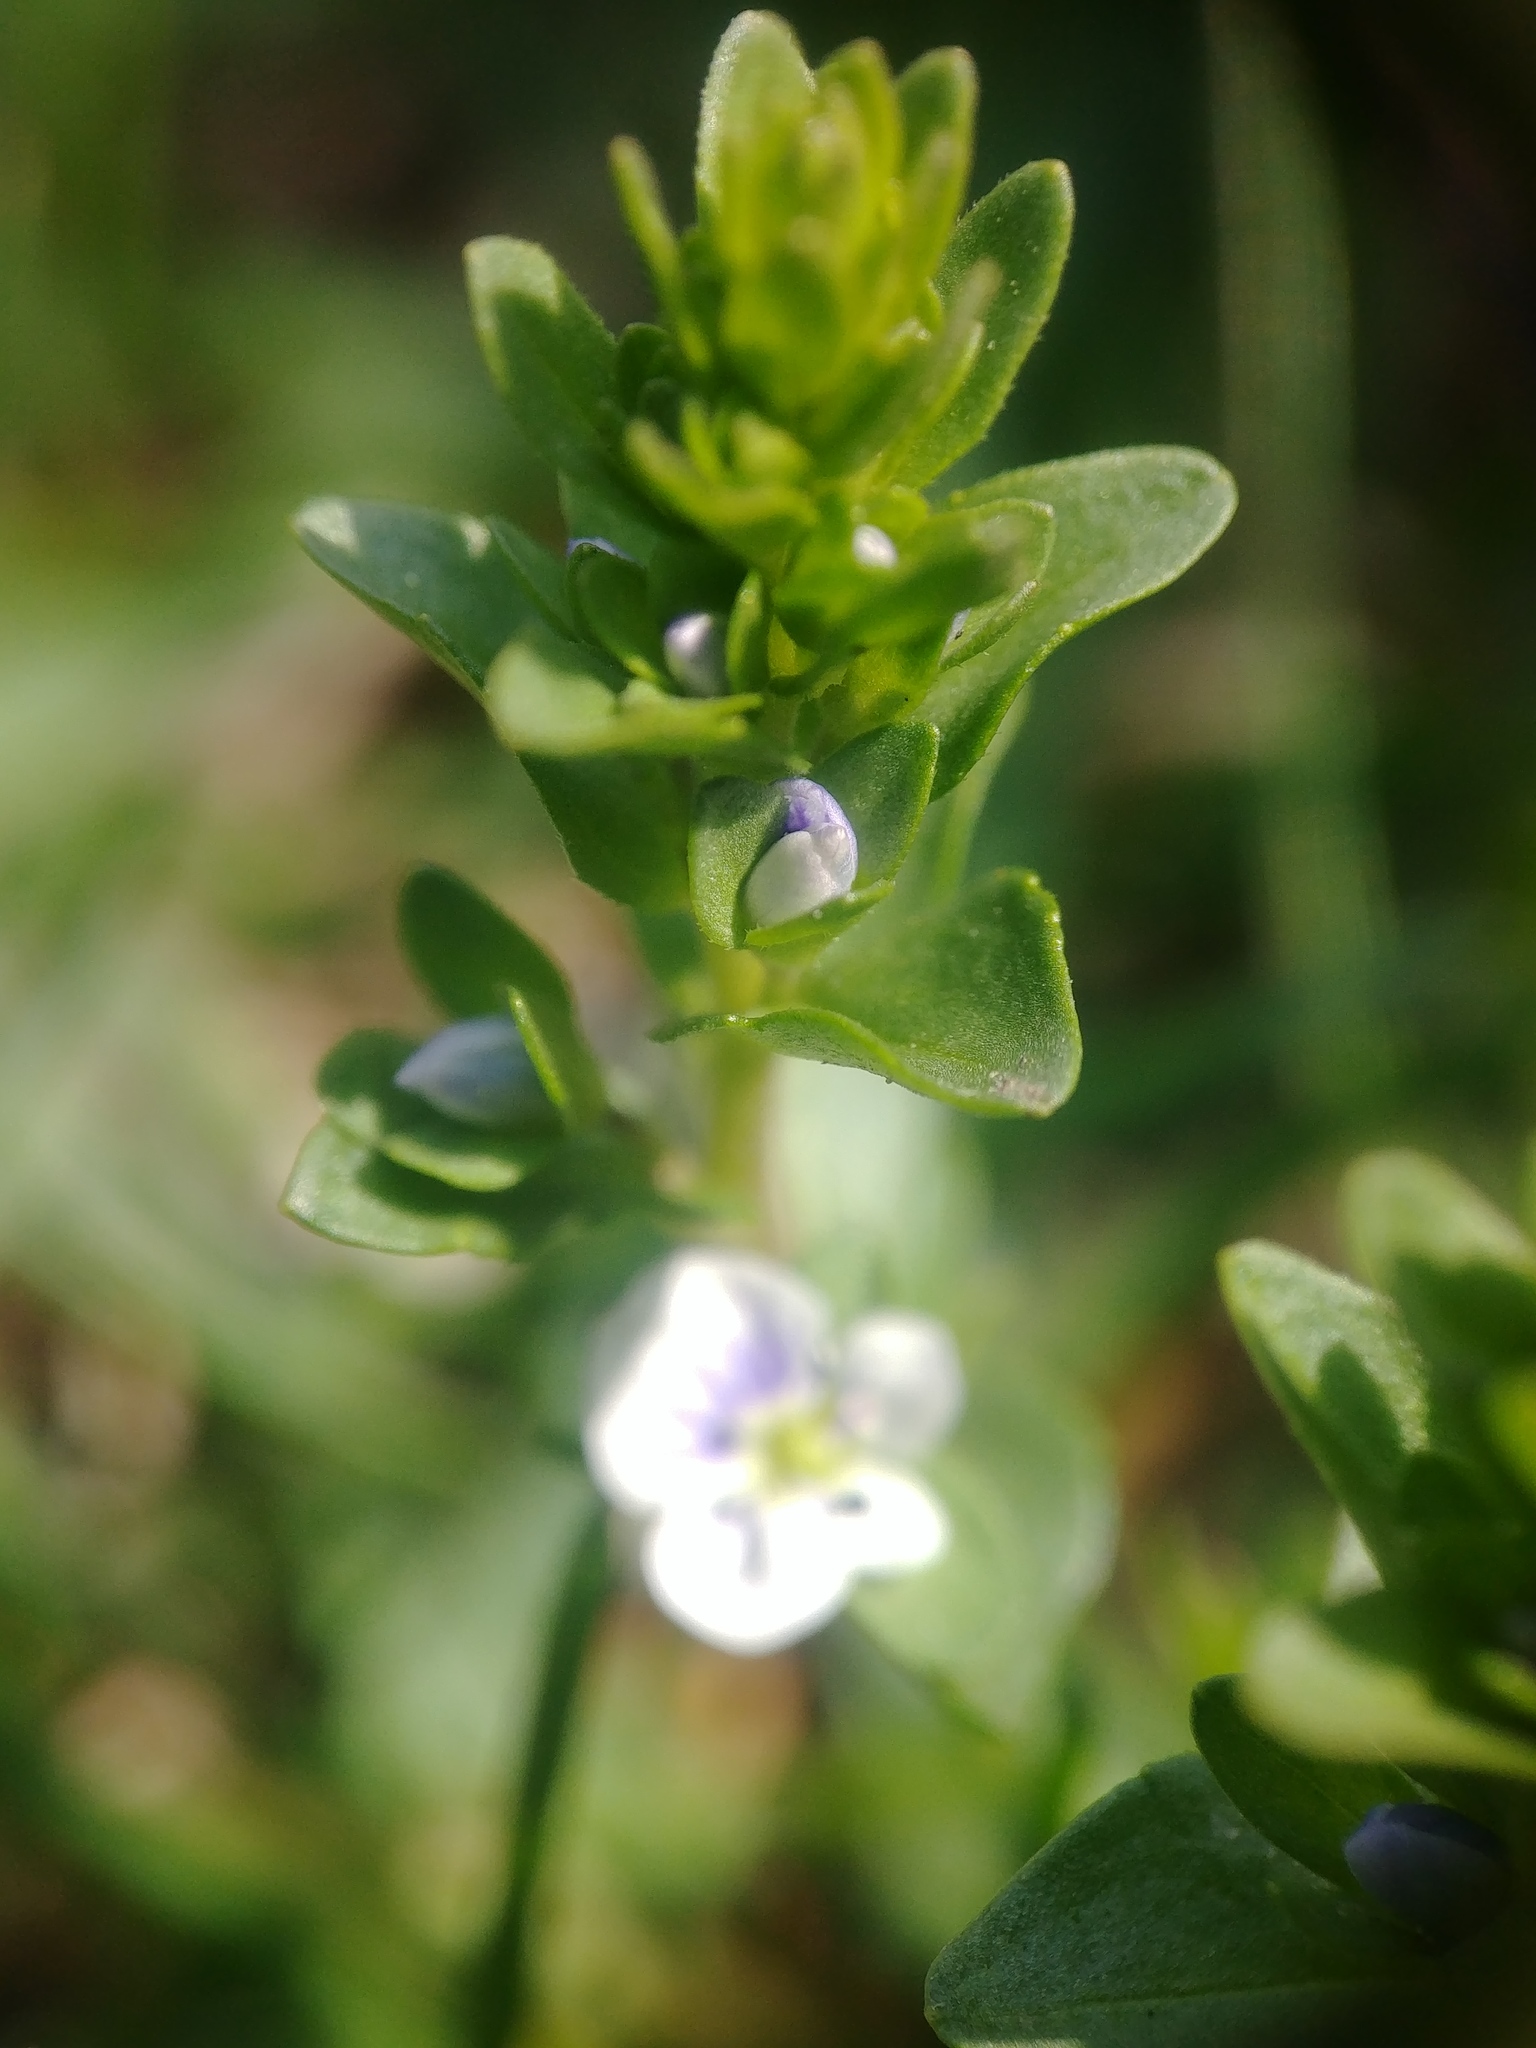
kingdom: Plantae
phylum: Tracheophyta
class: Magnoliopsida
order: Lamiales
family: Plantaginaceae
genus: Veronica
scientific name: Veronica serpyllifolia
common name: Thyme-leaved speedwell
